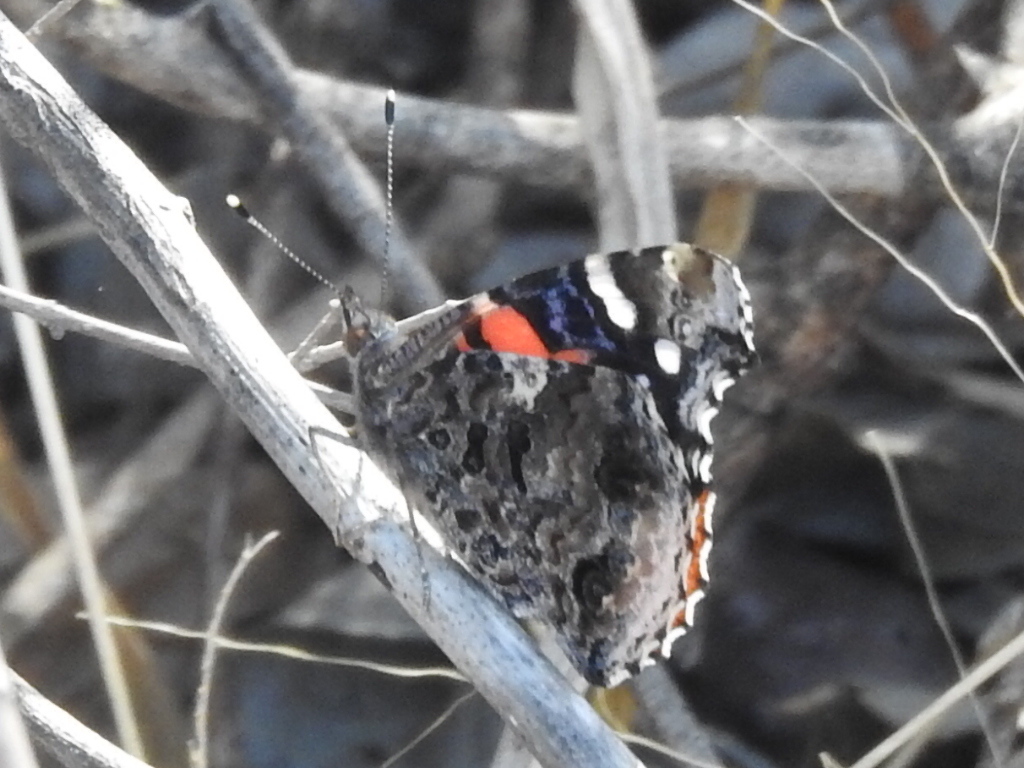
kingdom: Animalia
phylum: Arthropoda
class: Insecta
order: Lepidoptera
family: Nymphalidae
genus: Vanessa
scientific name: Vanessa atalanta
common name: Red admiral
